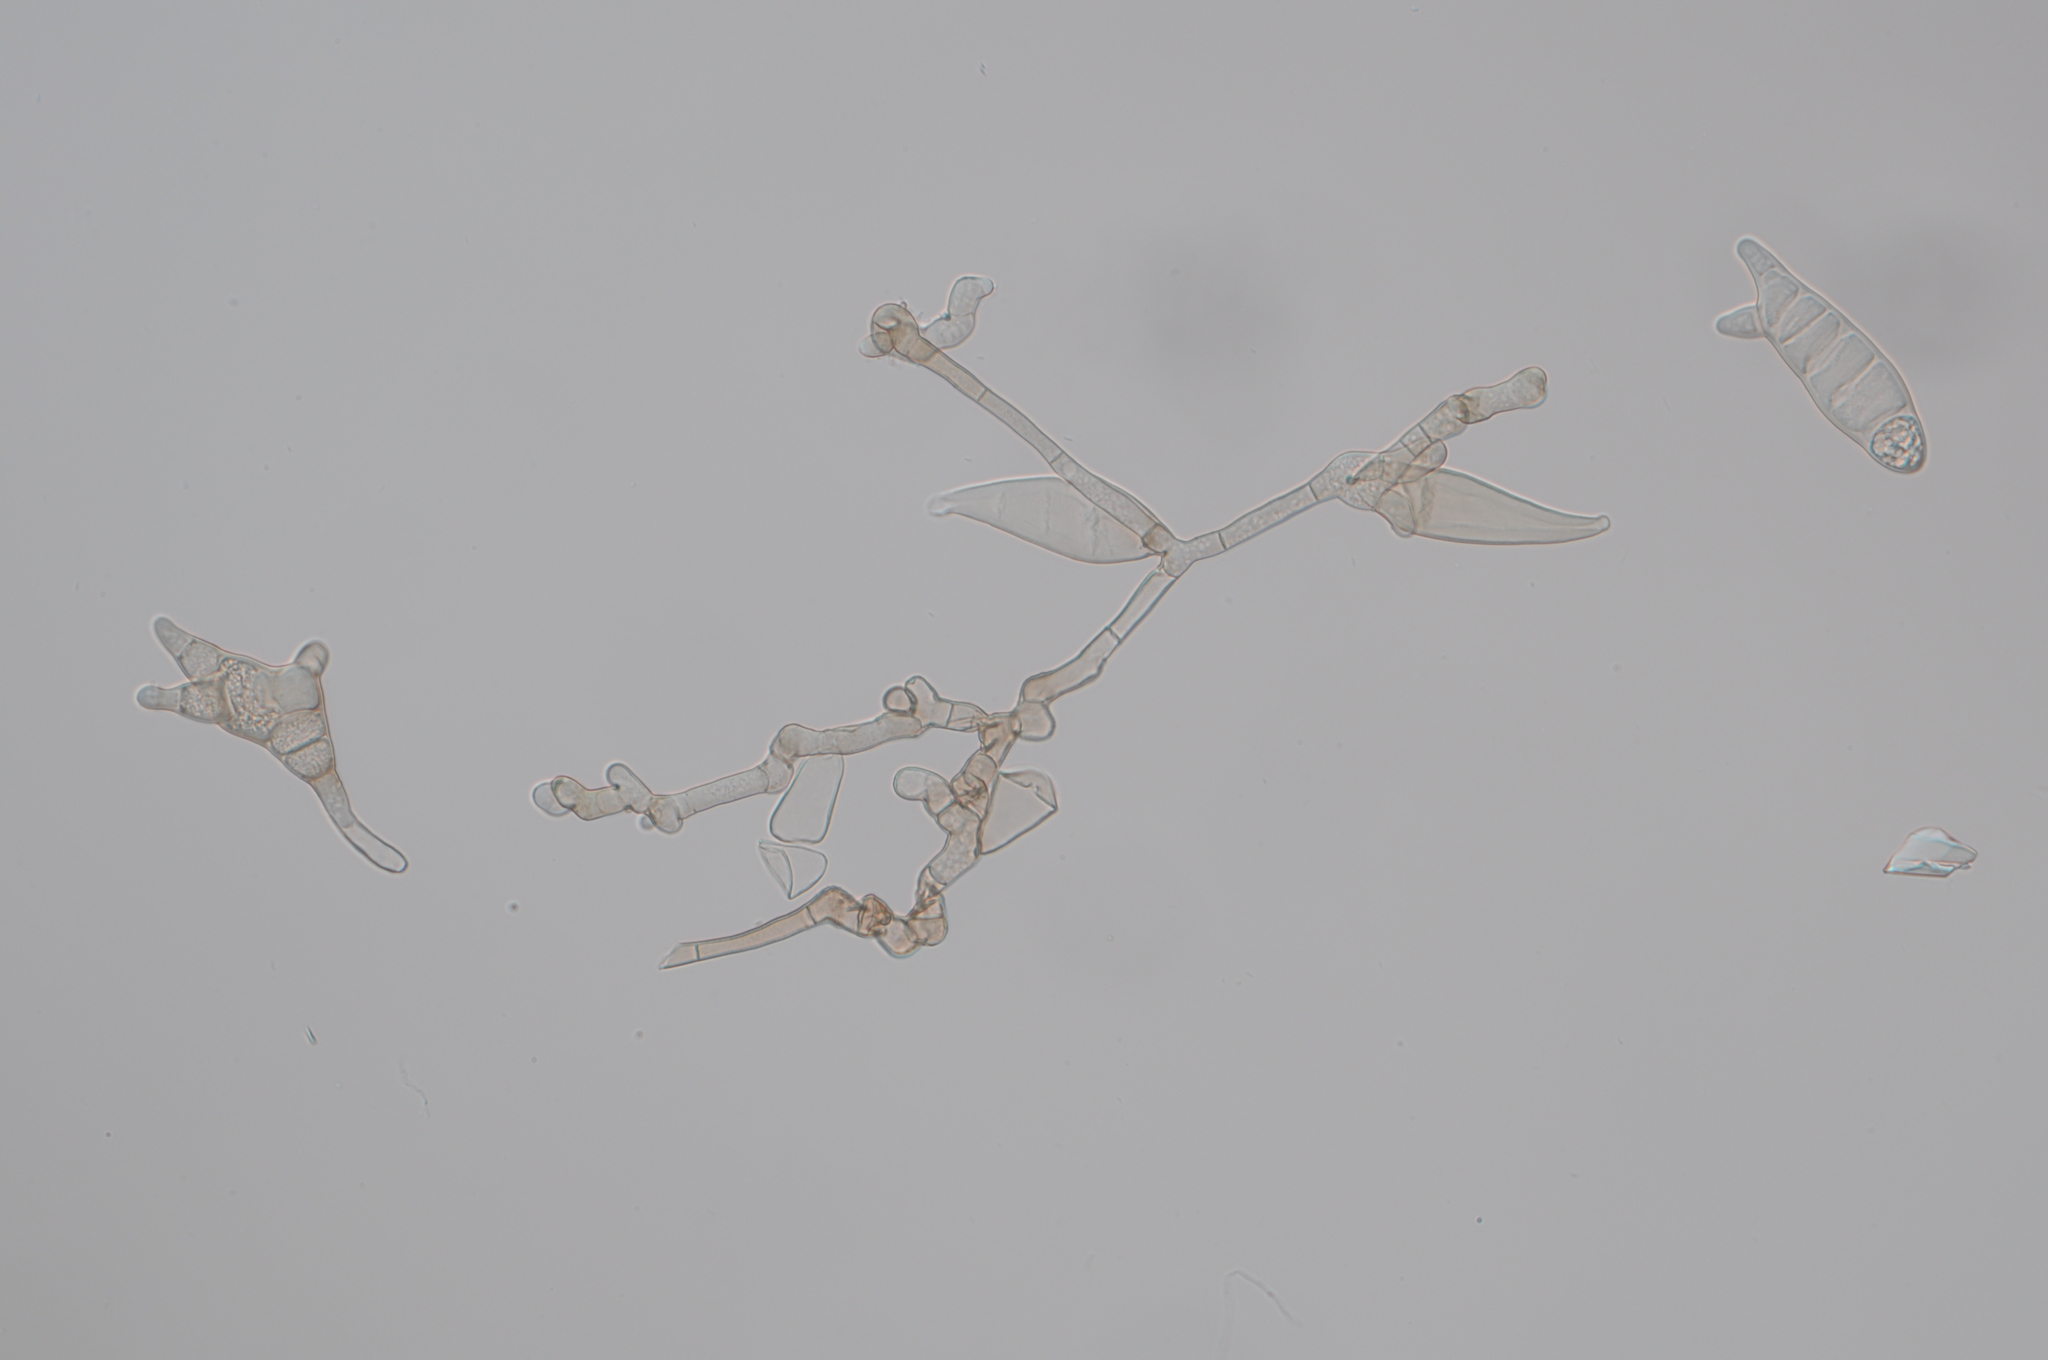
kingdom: Fungi
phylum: Ascomycota
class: Dothideomycetes
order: Pleosporales
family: Pleosporaceae
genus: Bipolaris
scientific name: Bipolaris oryzae
